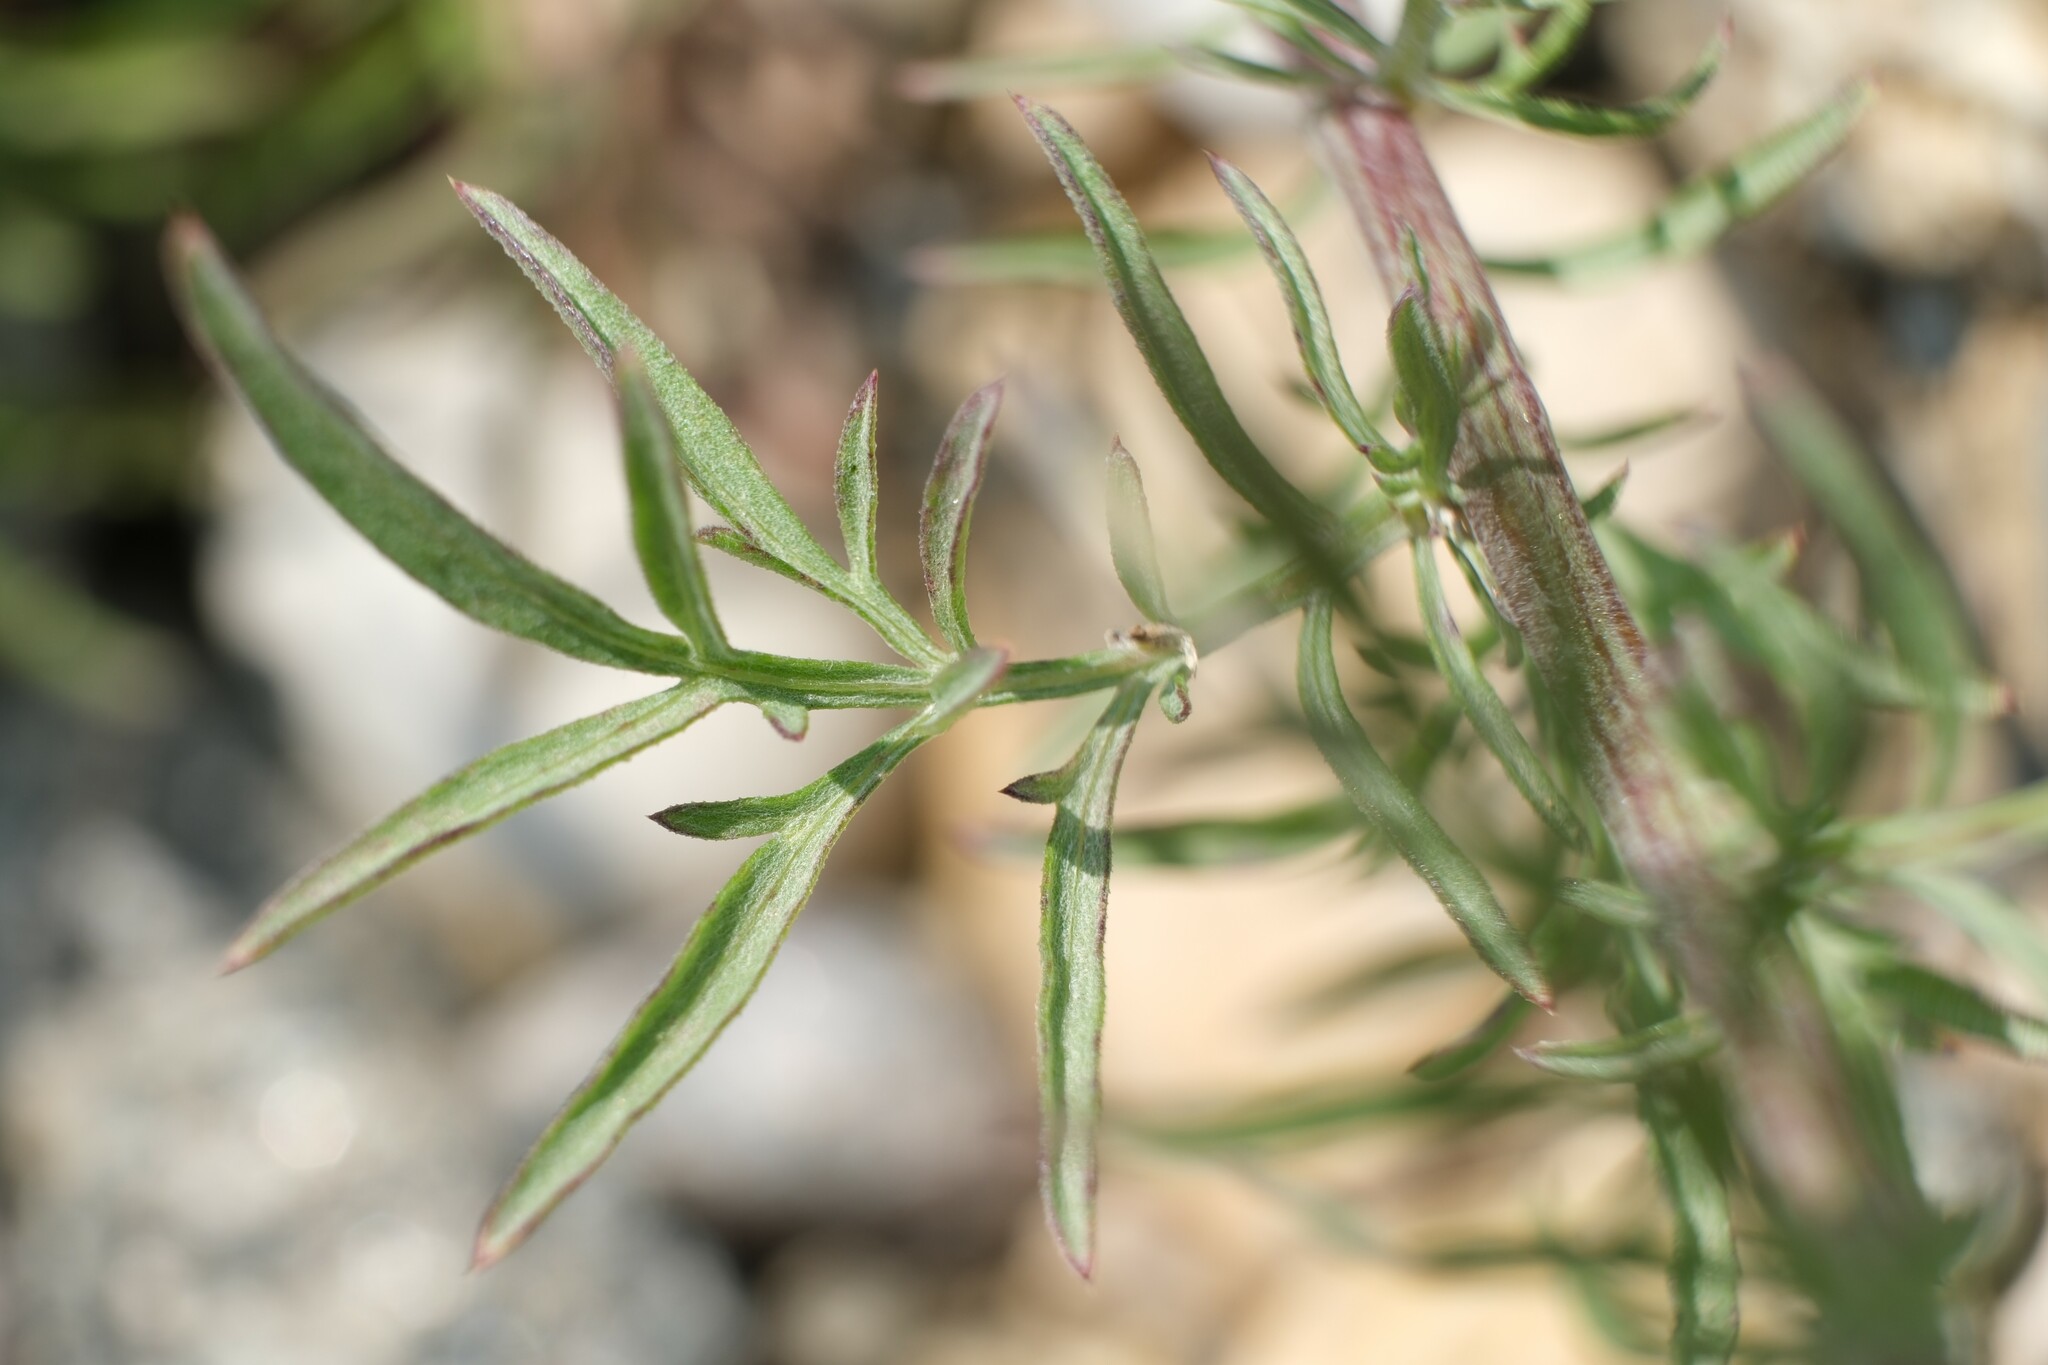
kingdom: Plantae
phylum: Tracheophyta
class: Magnoliopsida
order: Asterales
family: Asteraceae
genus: Centaurea
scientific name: Centaurea stoebe
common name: Spotted knapweed
